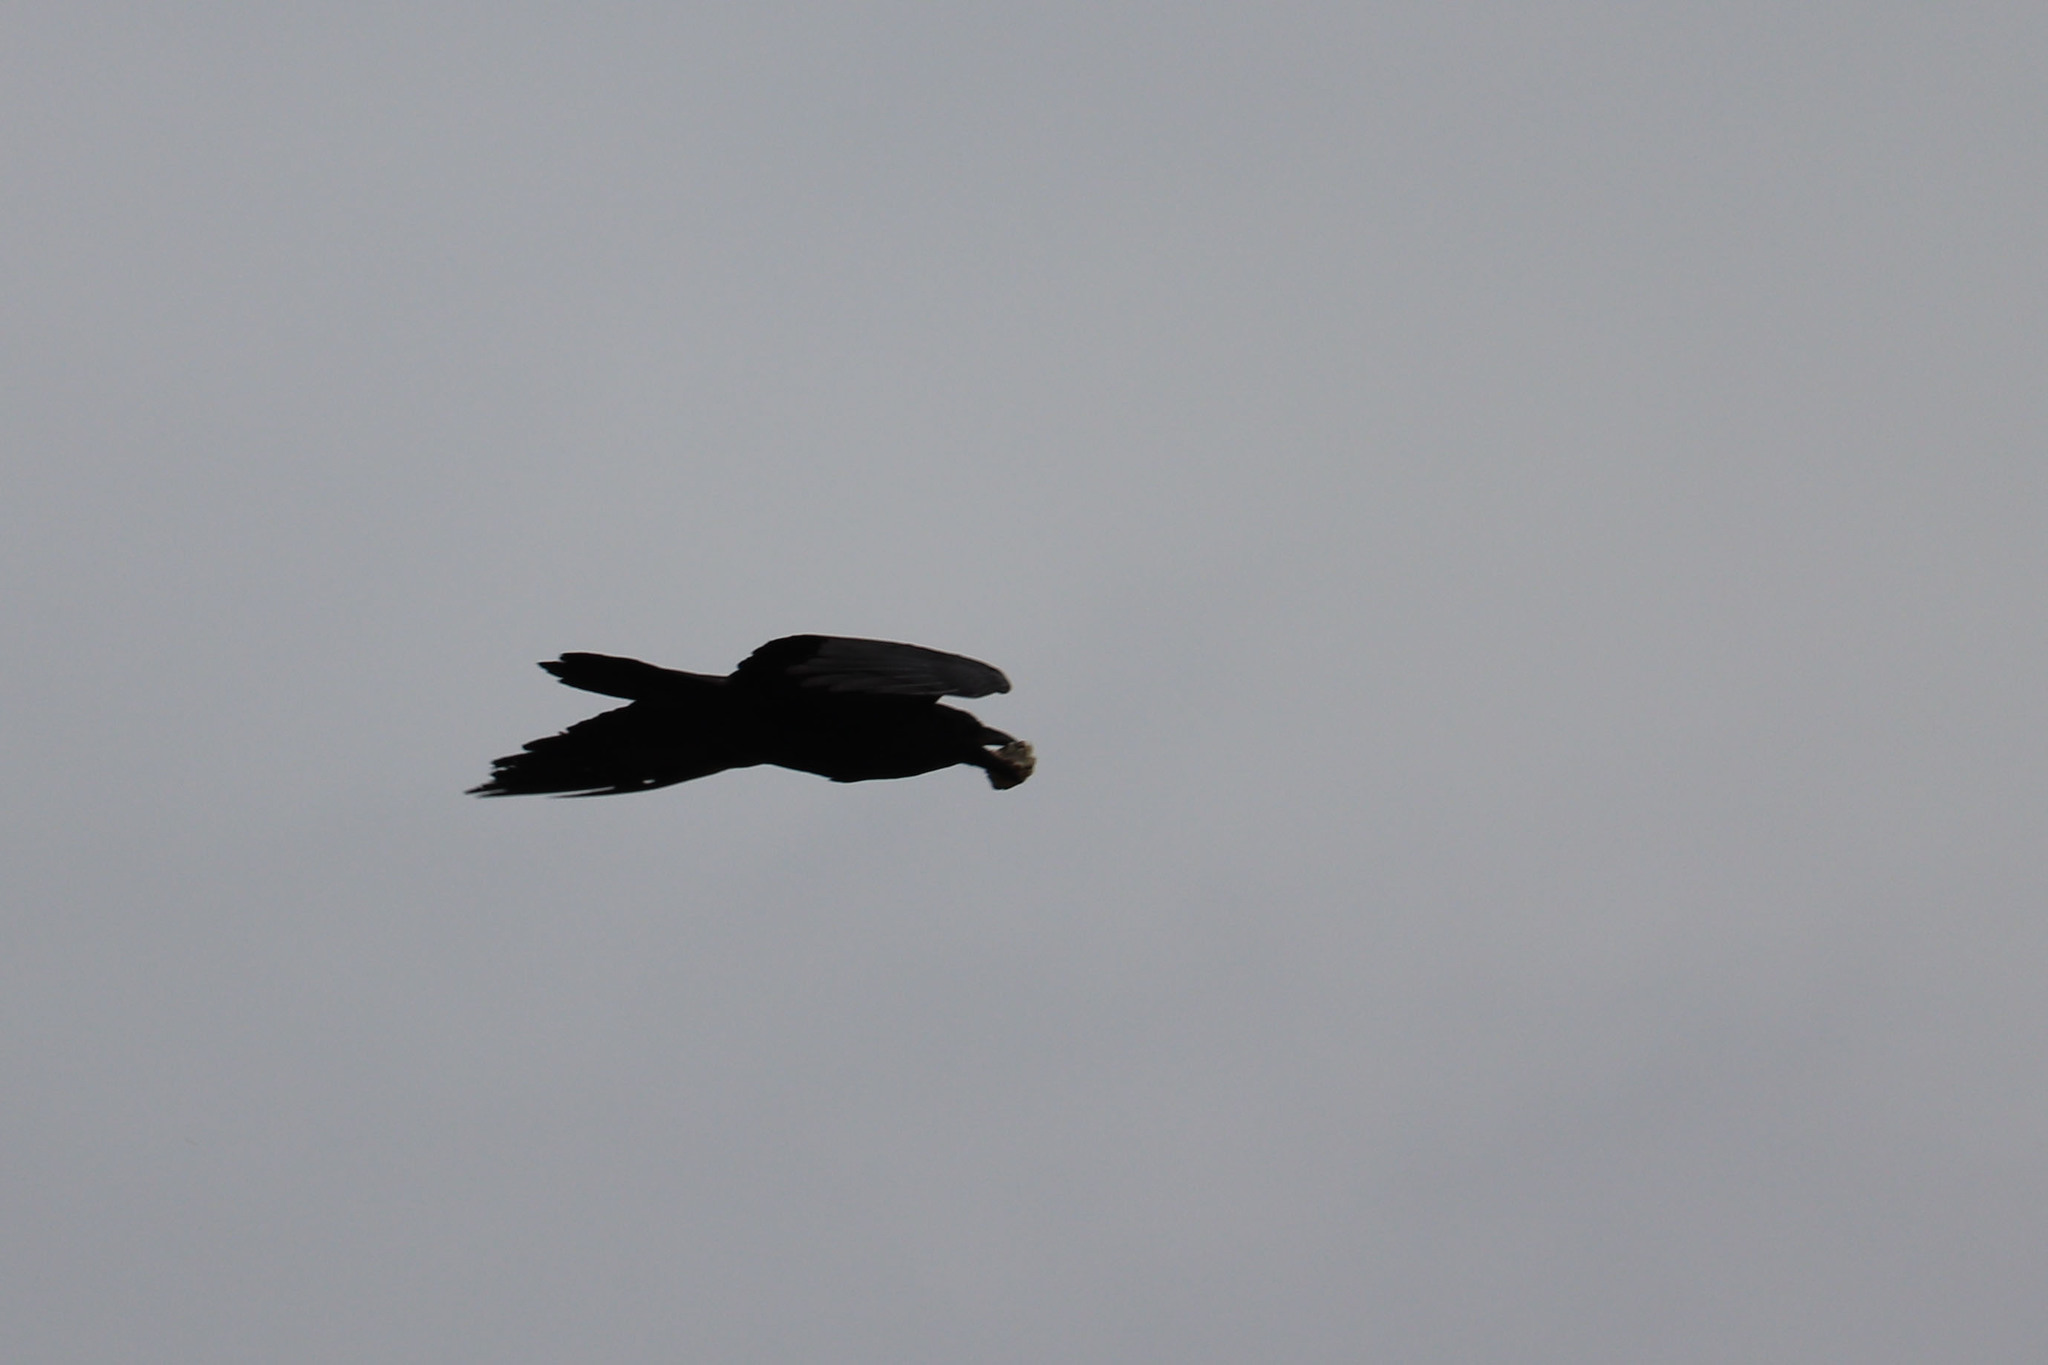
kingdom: Animalia
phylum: Chordata
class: Aves
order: Passeriformes
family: Corvidae
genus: Corvus
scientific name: Corvus corax
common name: Common raven
